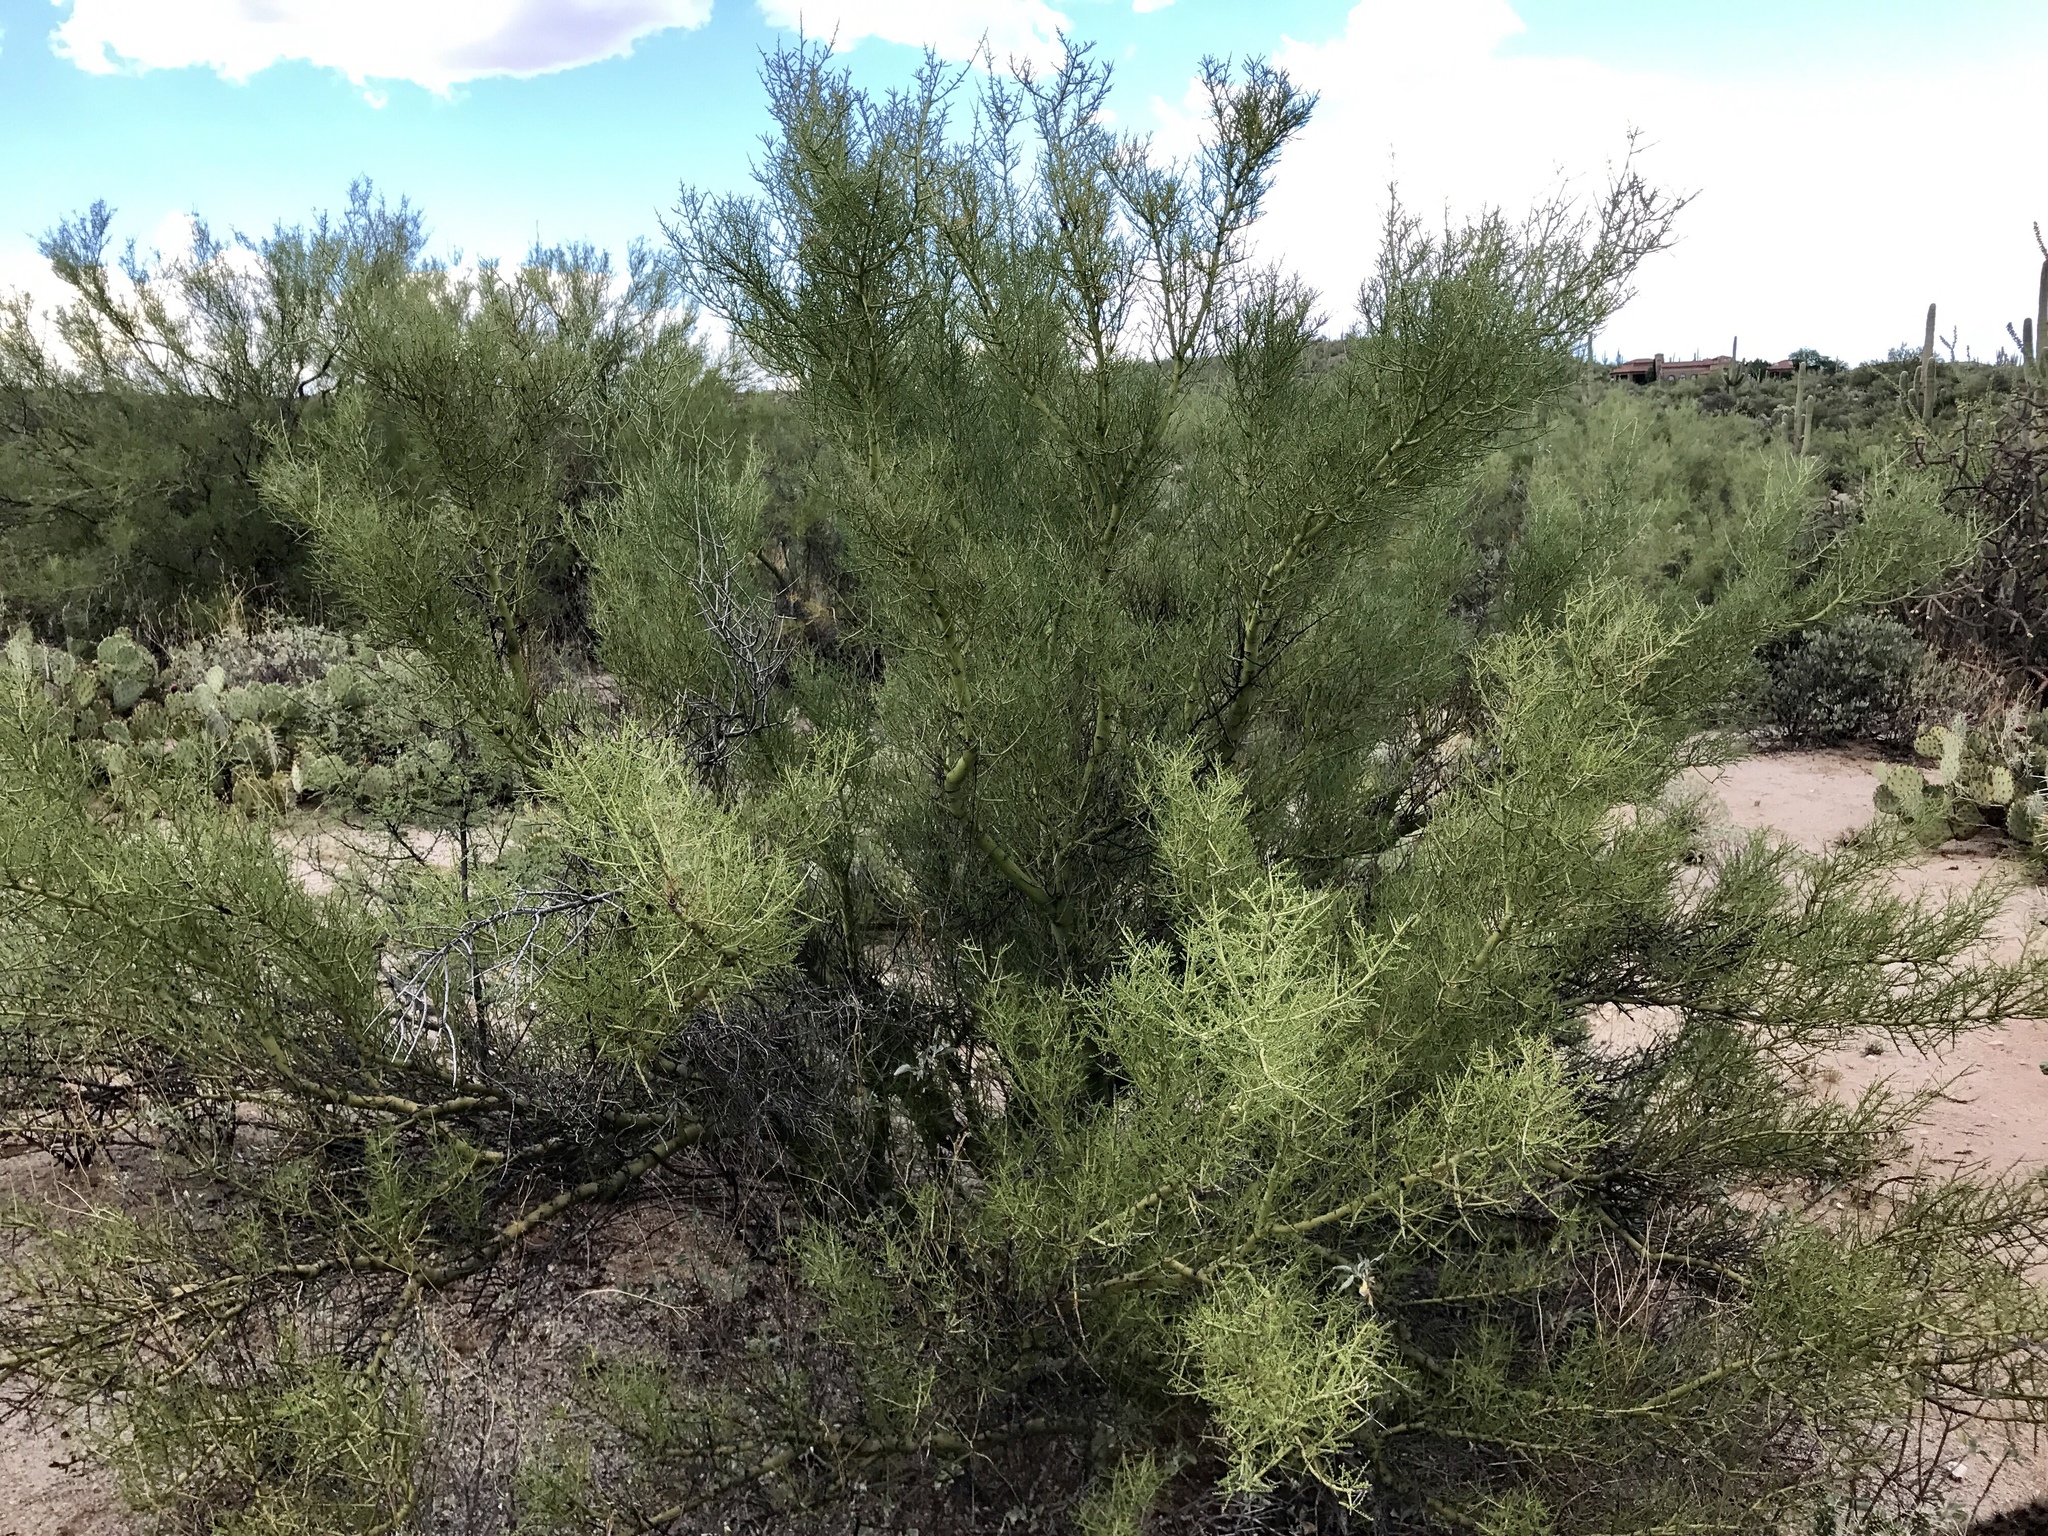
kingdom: Plantae
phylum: Tracheophyta
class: Magnoliopsida
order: Fabales
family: Fabaceae
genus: Parkinsonia
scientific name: Parkinsonia microphylla
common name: Yellow paloverde
